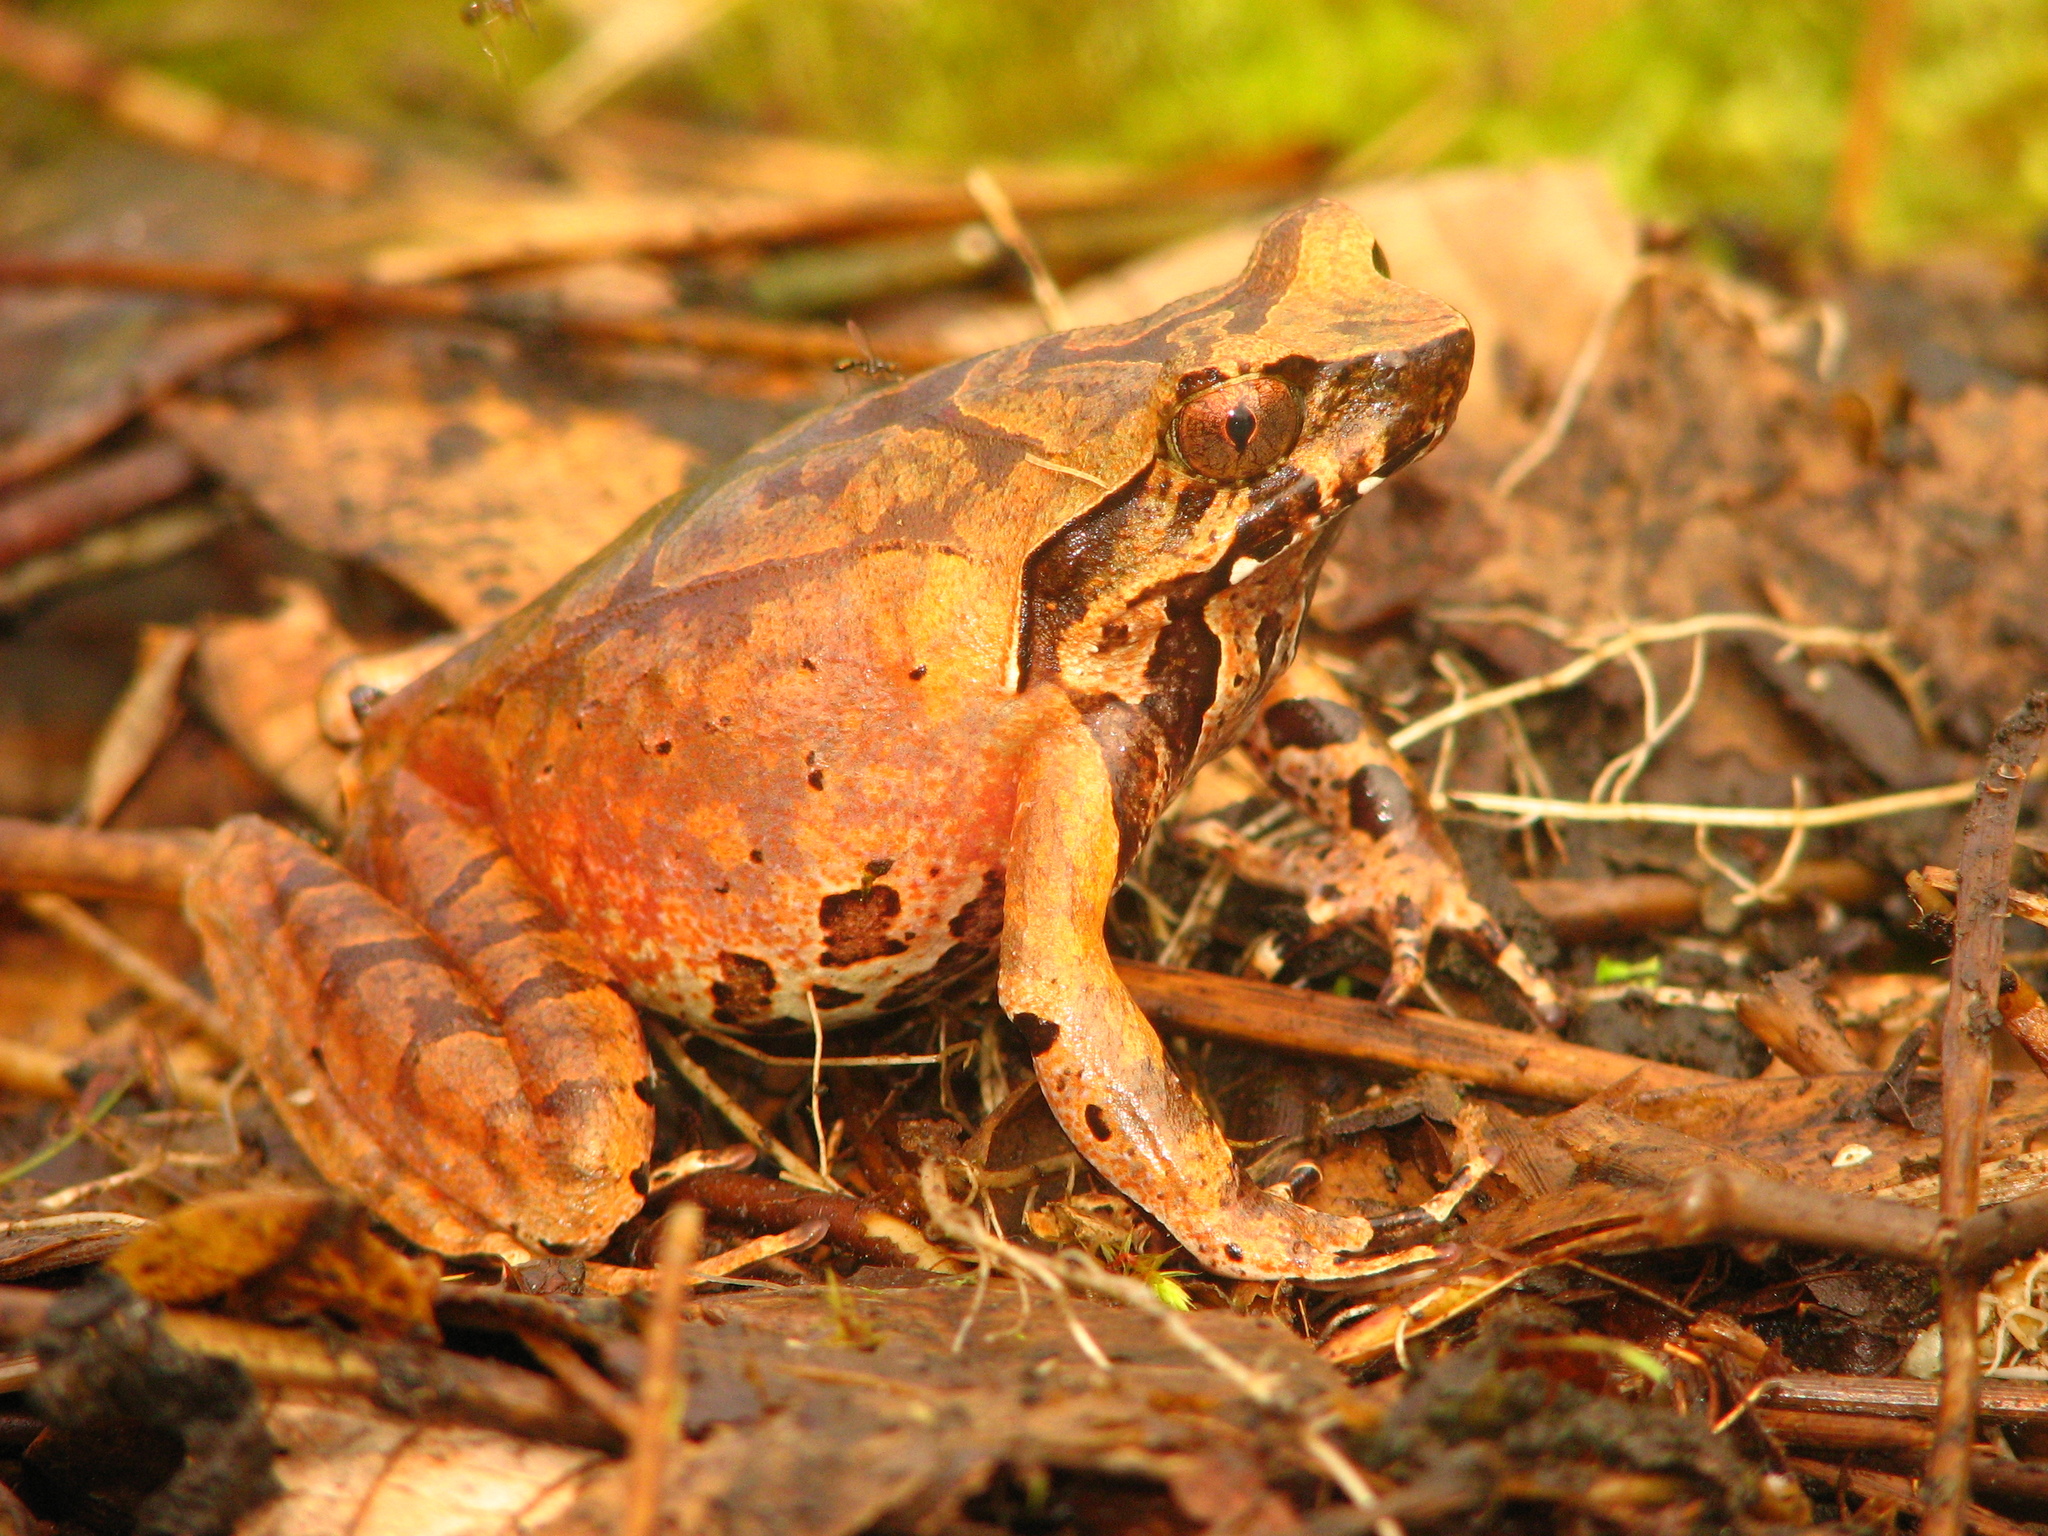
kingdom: Animalia
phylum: Chordata
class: Amphibia
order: Anura
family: Megophryidae
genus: Megophrys
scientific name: Megophrys
